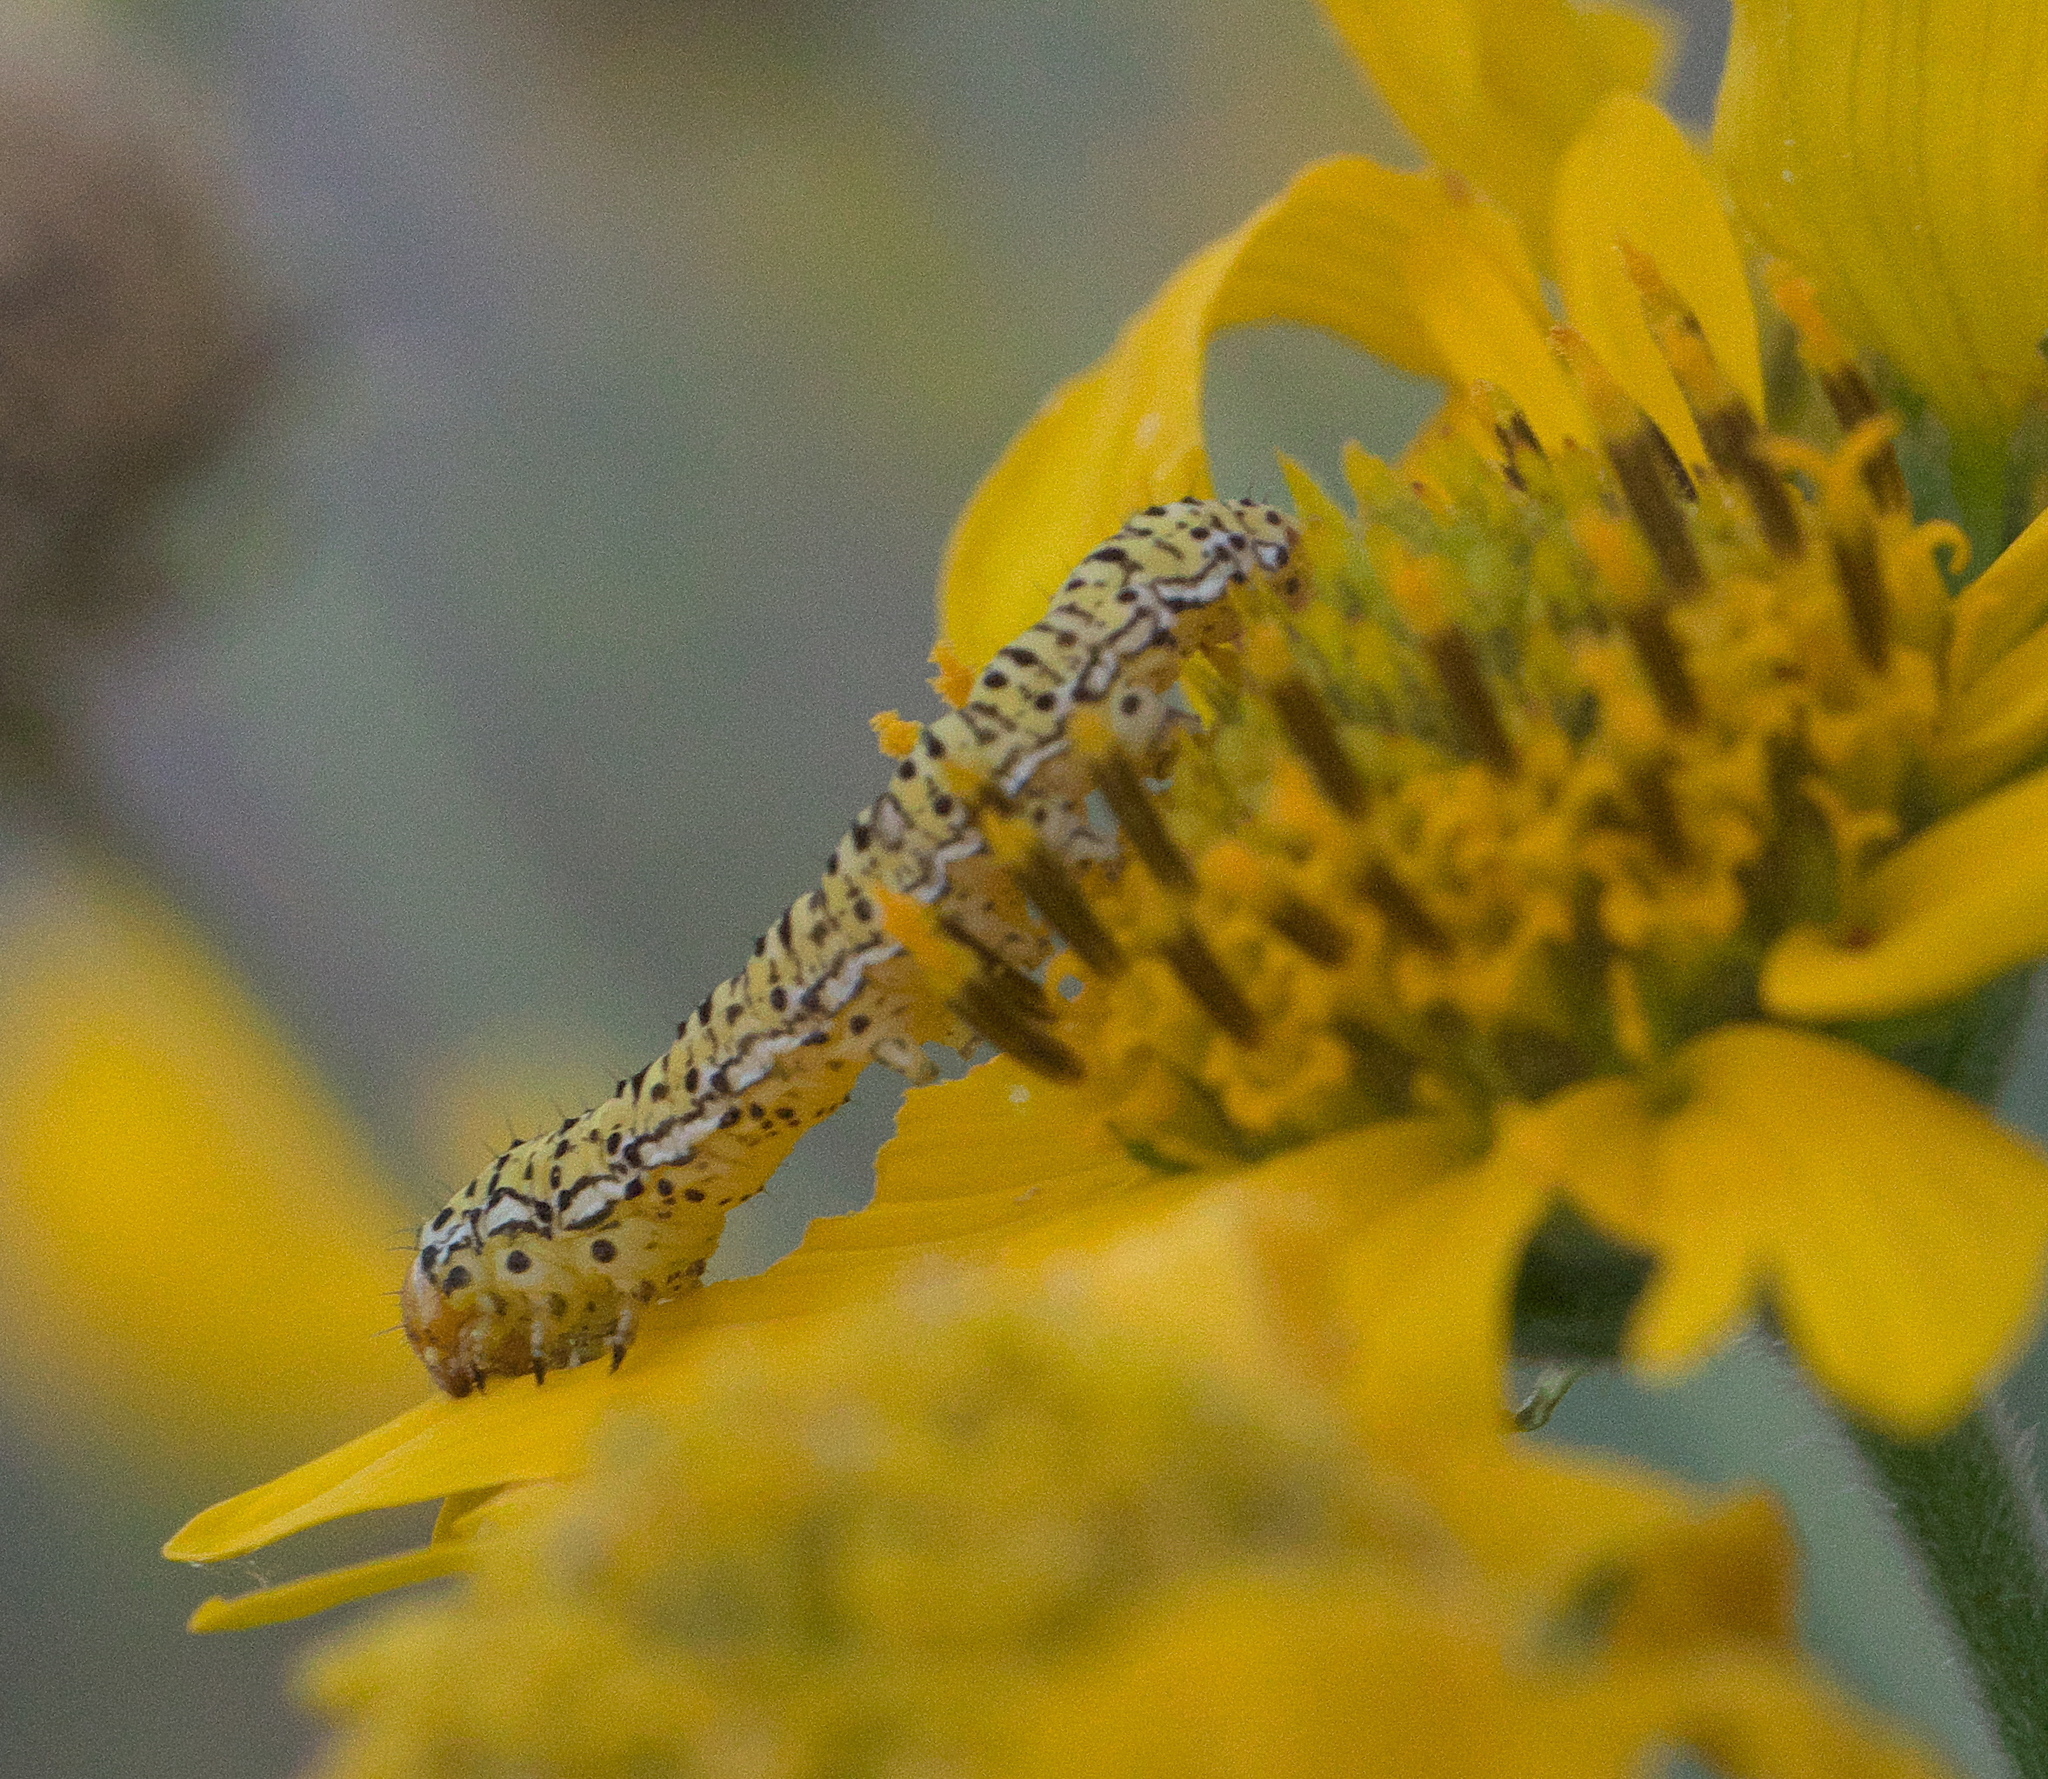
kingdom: Animalia
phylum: Arthropoda
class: Insecta
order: Lepidoptera
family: Noctuidae
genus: Basilodes
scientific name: Basilodes chrysopis
